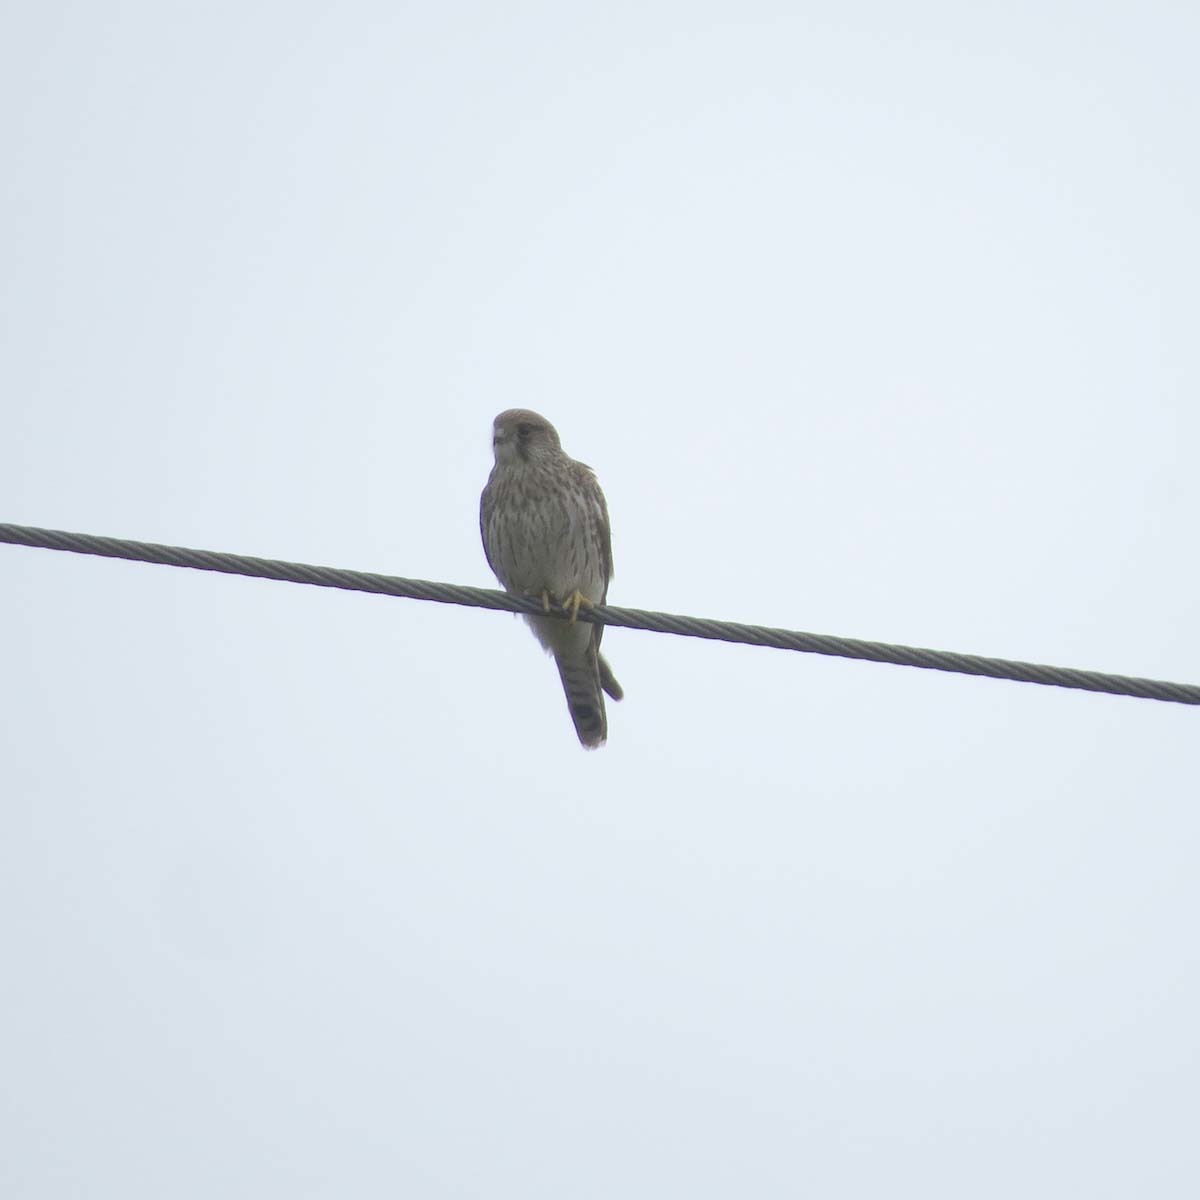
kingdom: Animalia
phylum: Chordata
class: Aves
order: Falconiformes
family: Falconidae
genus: Falco
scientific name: Falco tinnunculus
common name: Common kestrel
